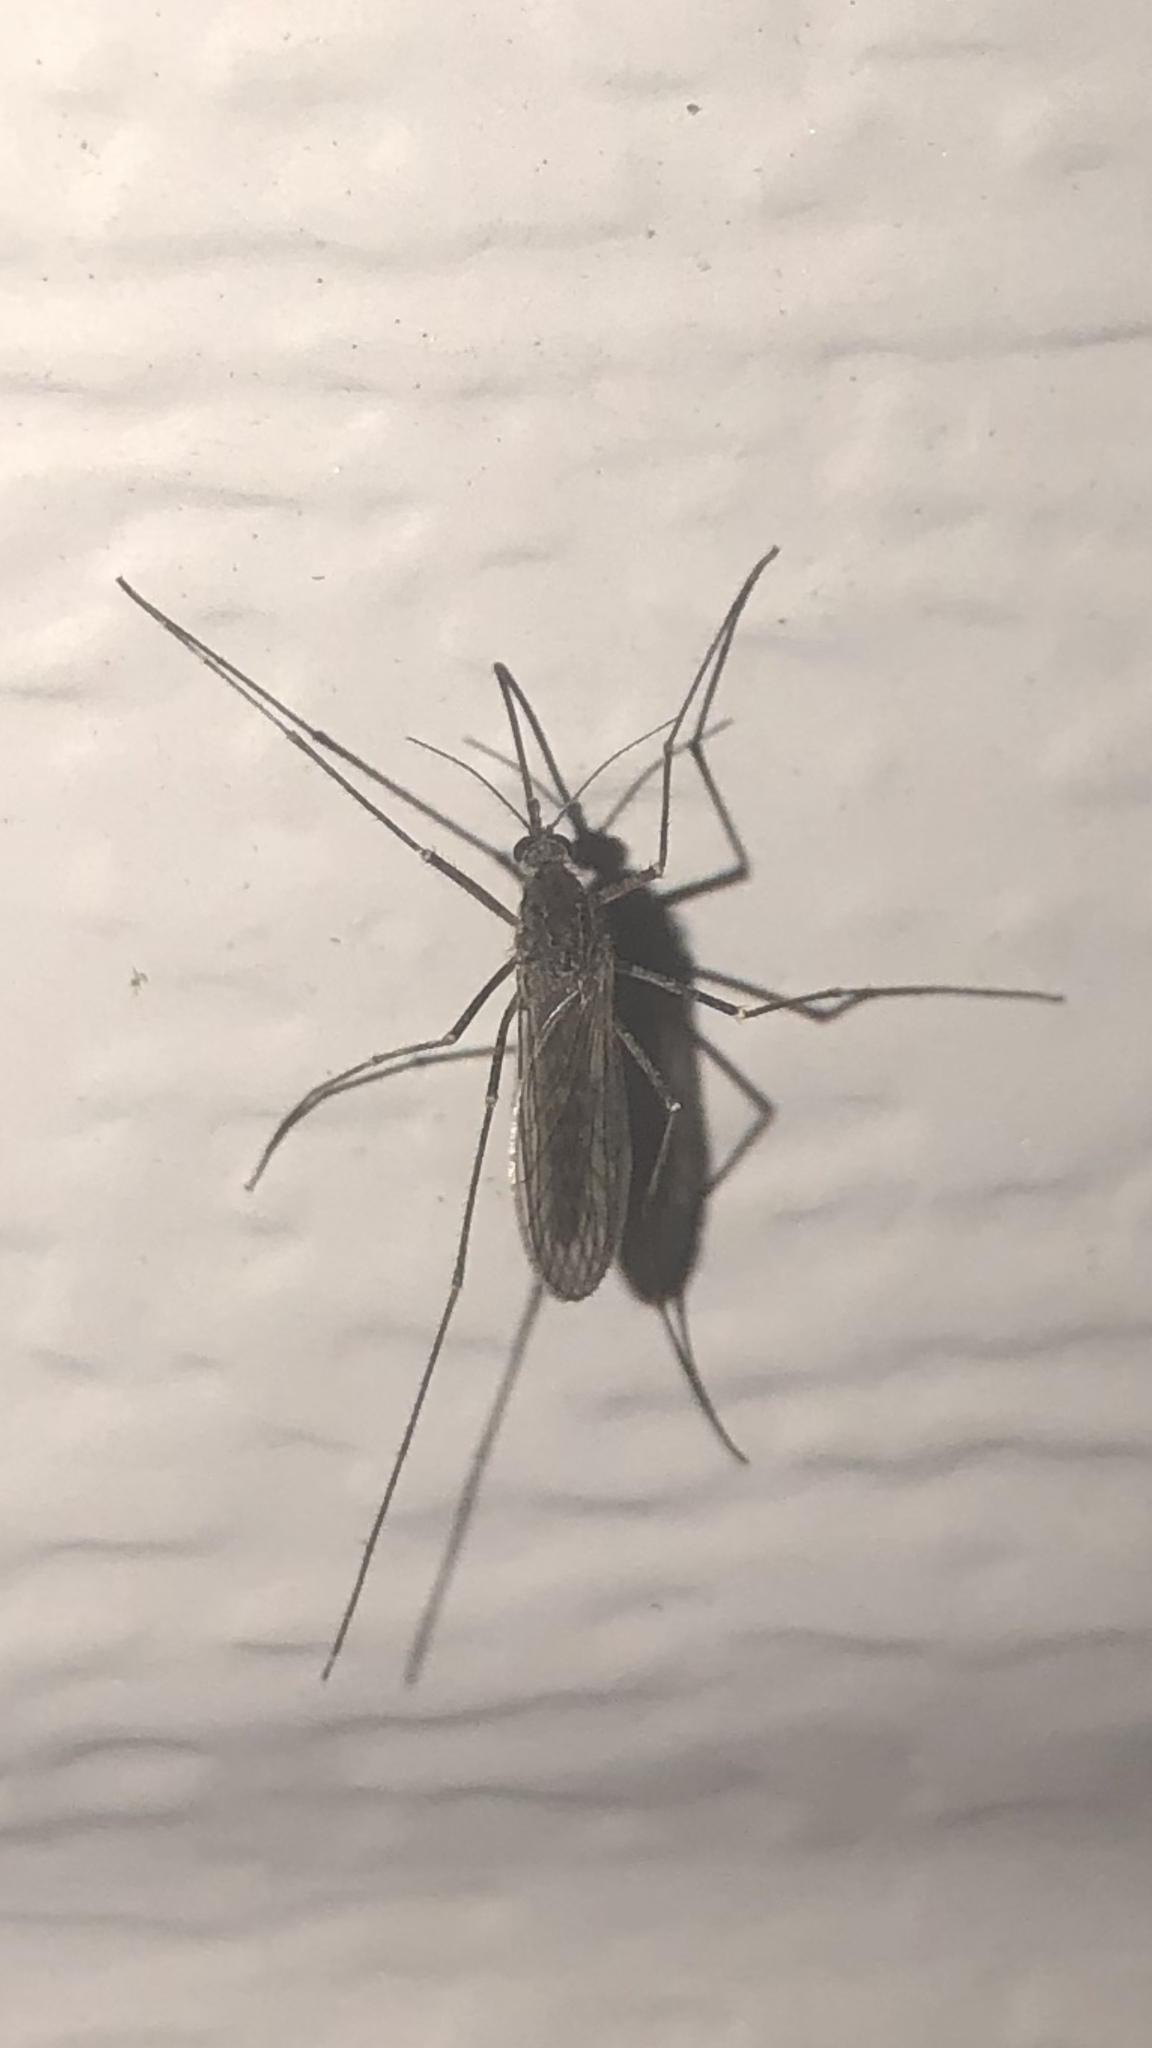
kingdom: Animalia
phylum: Arthropoda
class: Insecta
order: Diptera
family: Culicidae
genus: Culiseta
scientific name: Culiseta inornata
